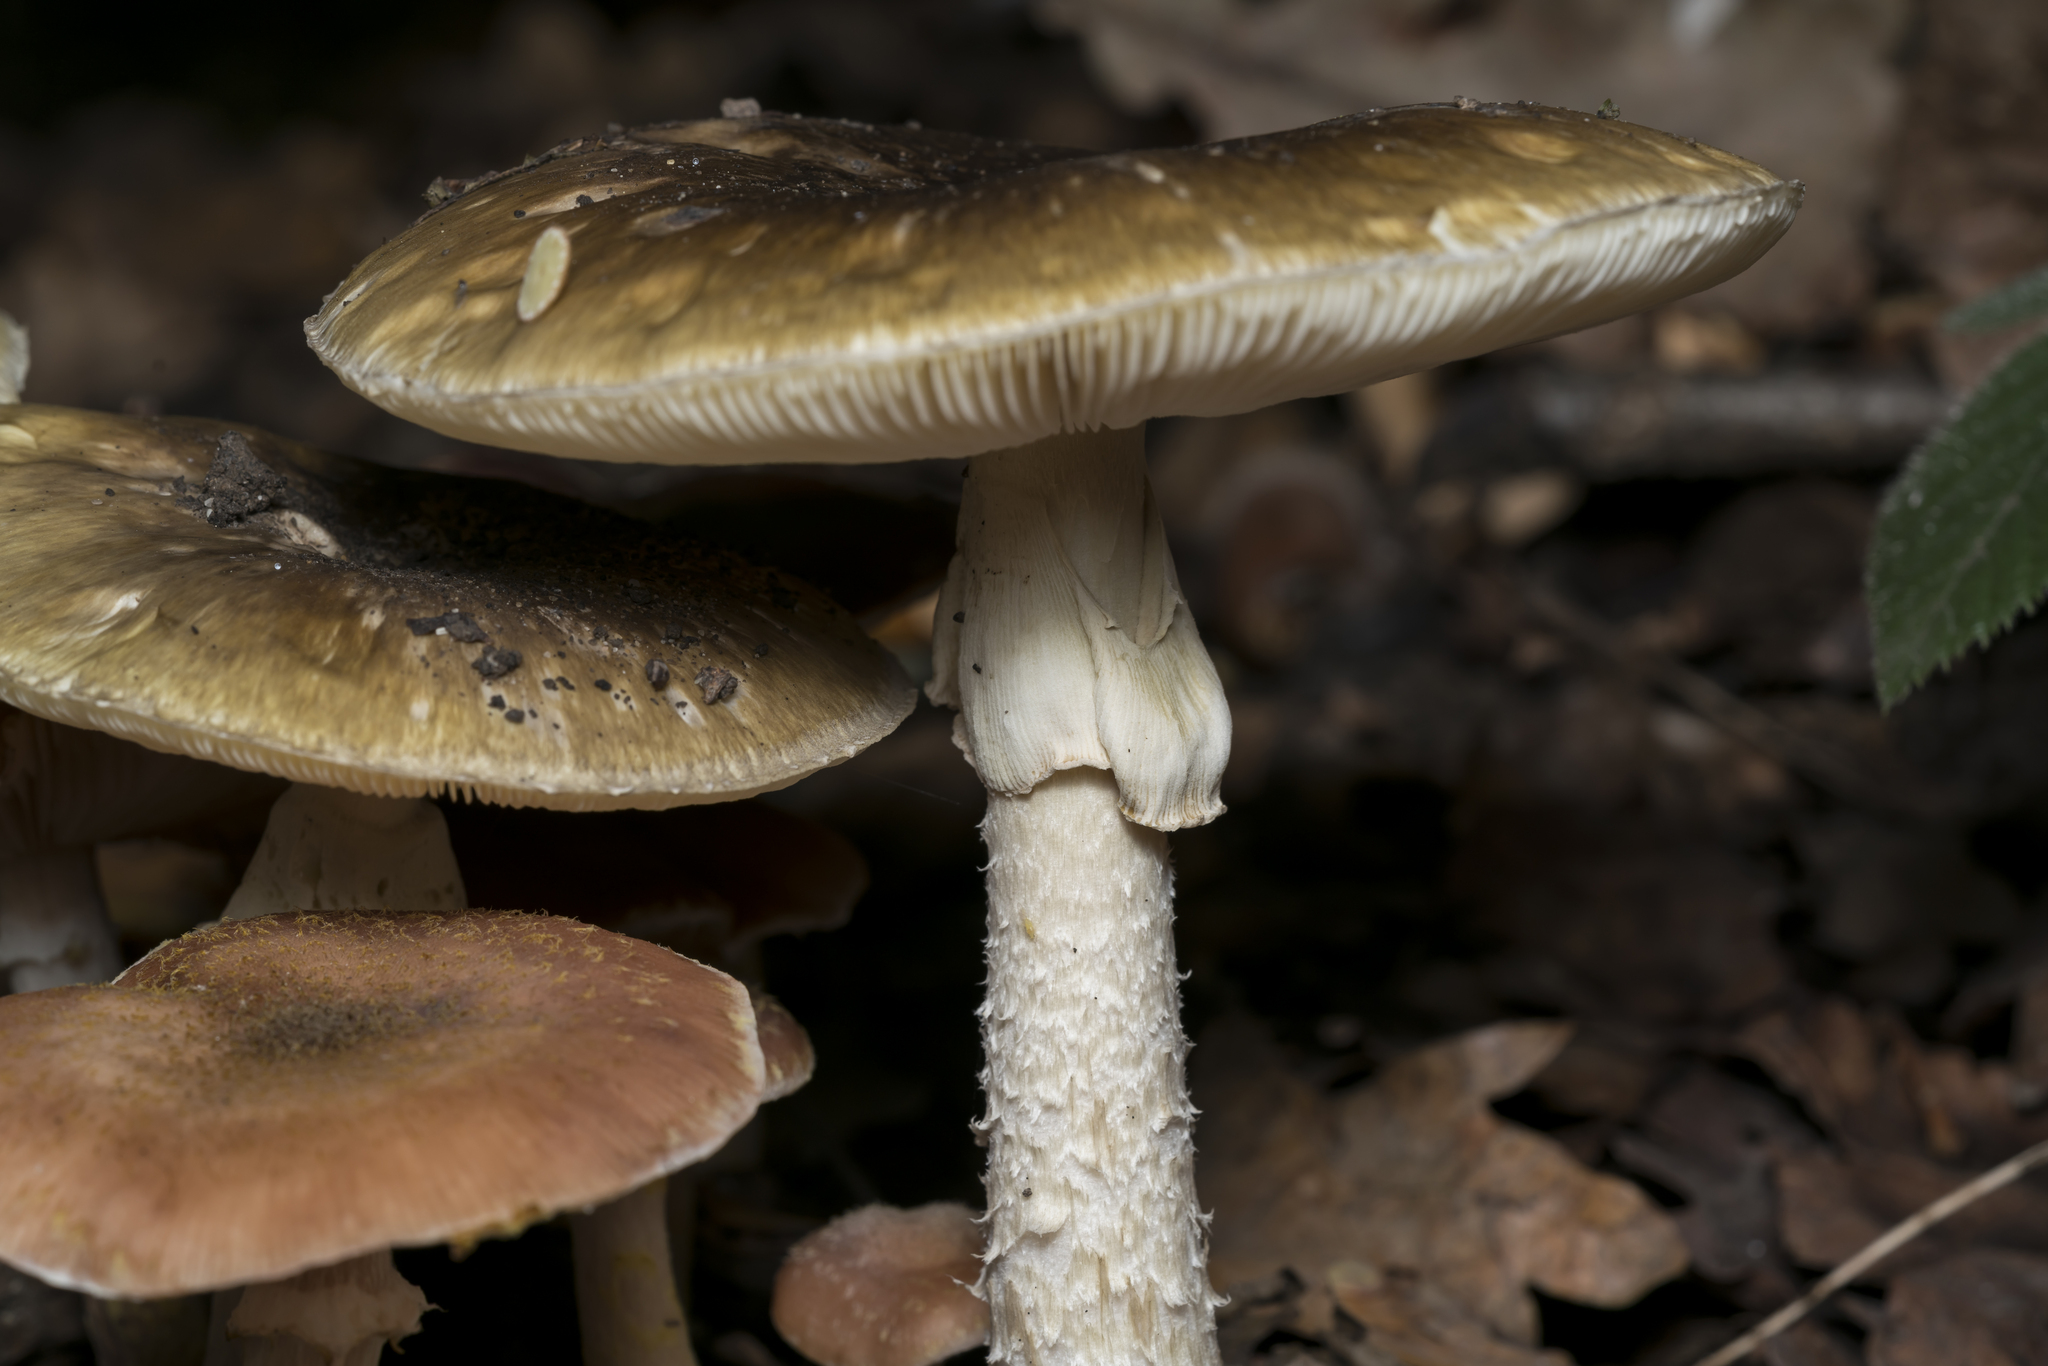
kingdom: Fungi
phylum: Basidiomycota
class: Agaricomycetes
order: Agaricales
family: Amanitaceae
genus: Amanita
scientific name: Amanita phalloides
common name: Death cap
